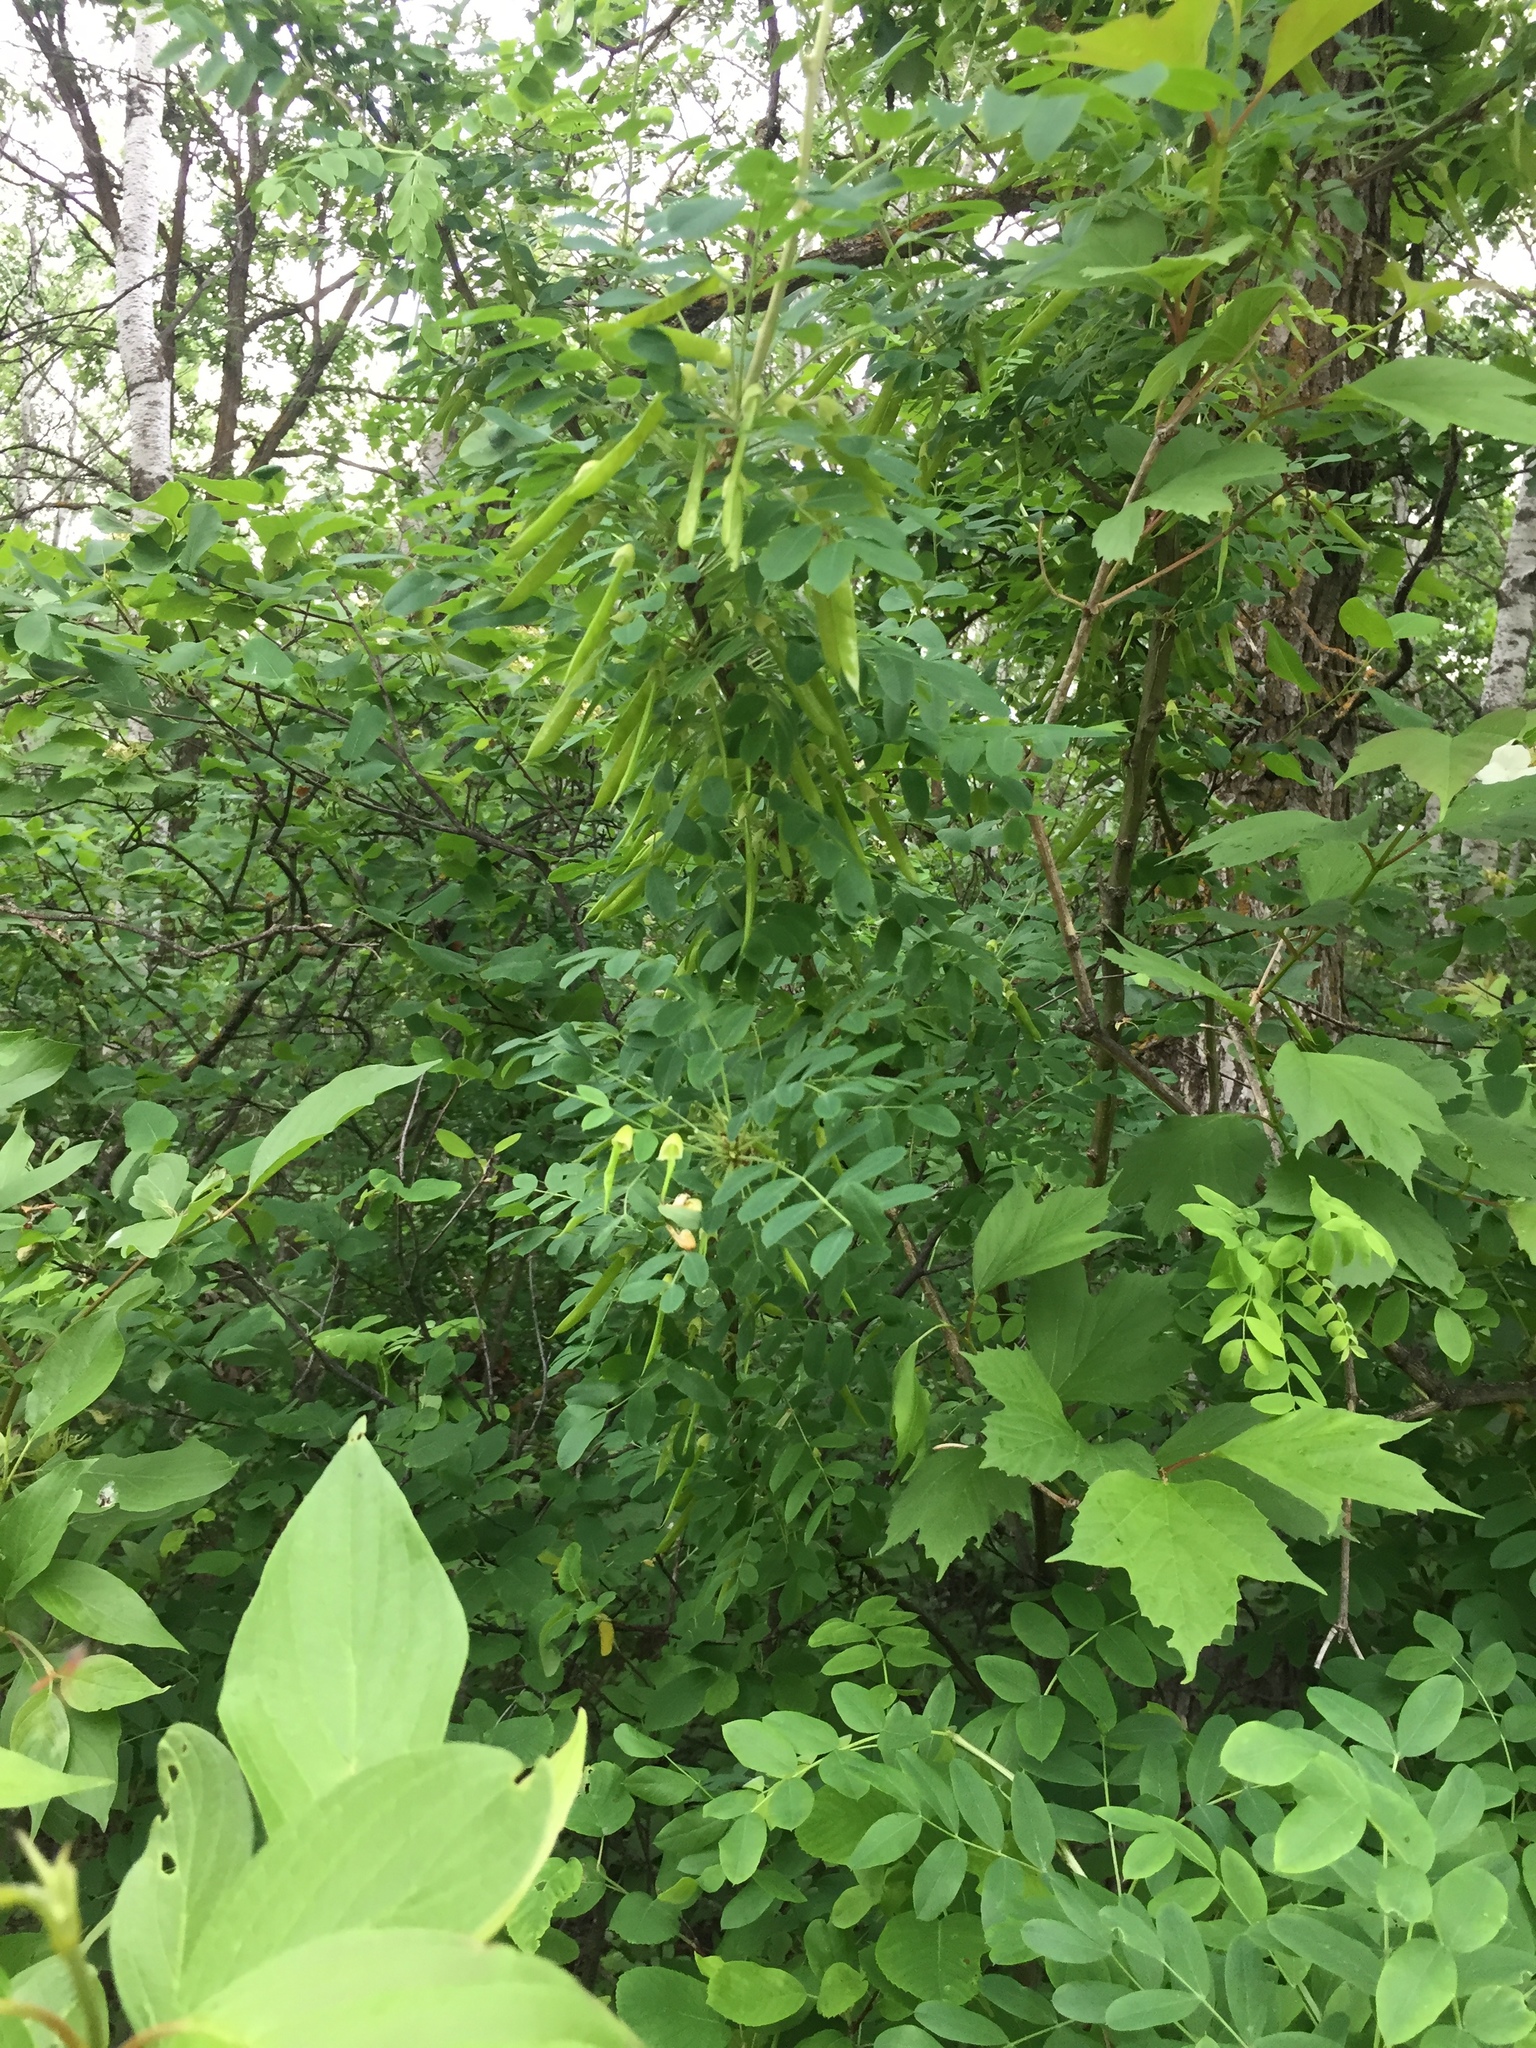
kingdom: Plantae
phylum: Tracheophyta
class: Magnoliopsida
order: Fabales
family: Fabaceae
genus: Caragana
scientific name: Caragana arborescens
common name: Siberian peashrub
